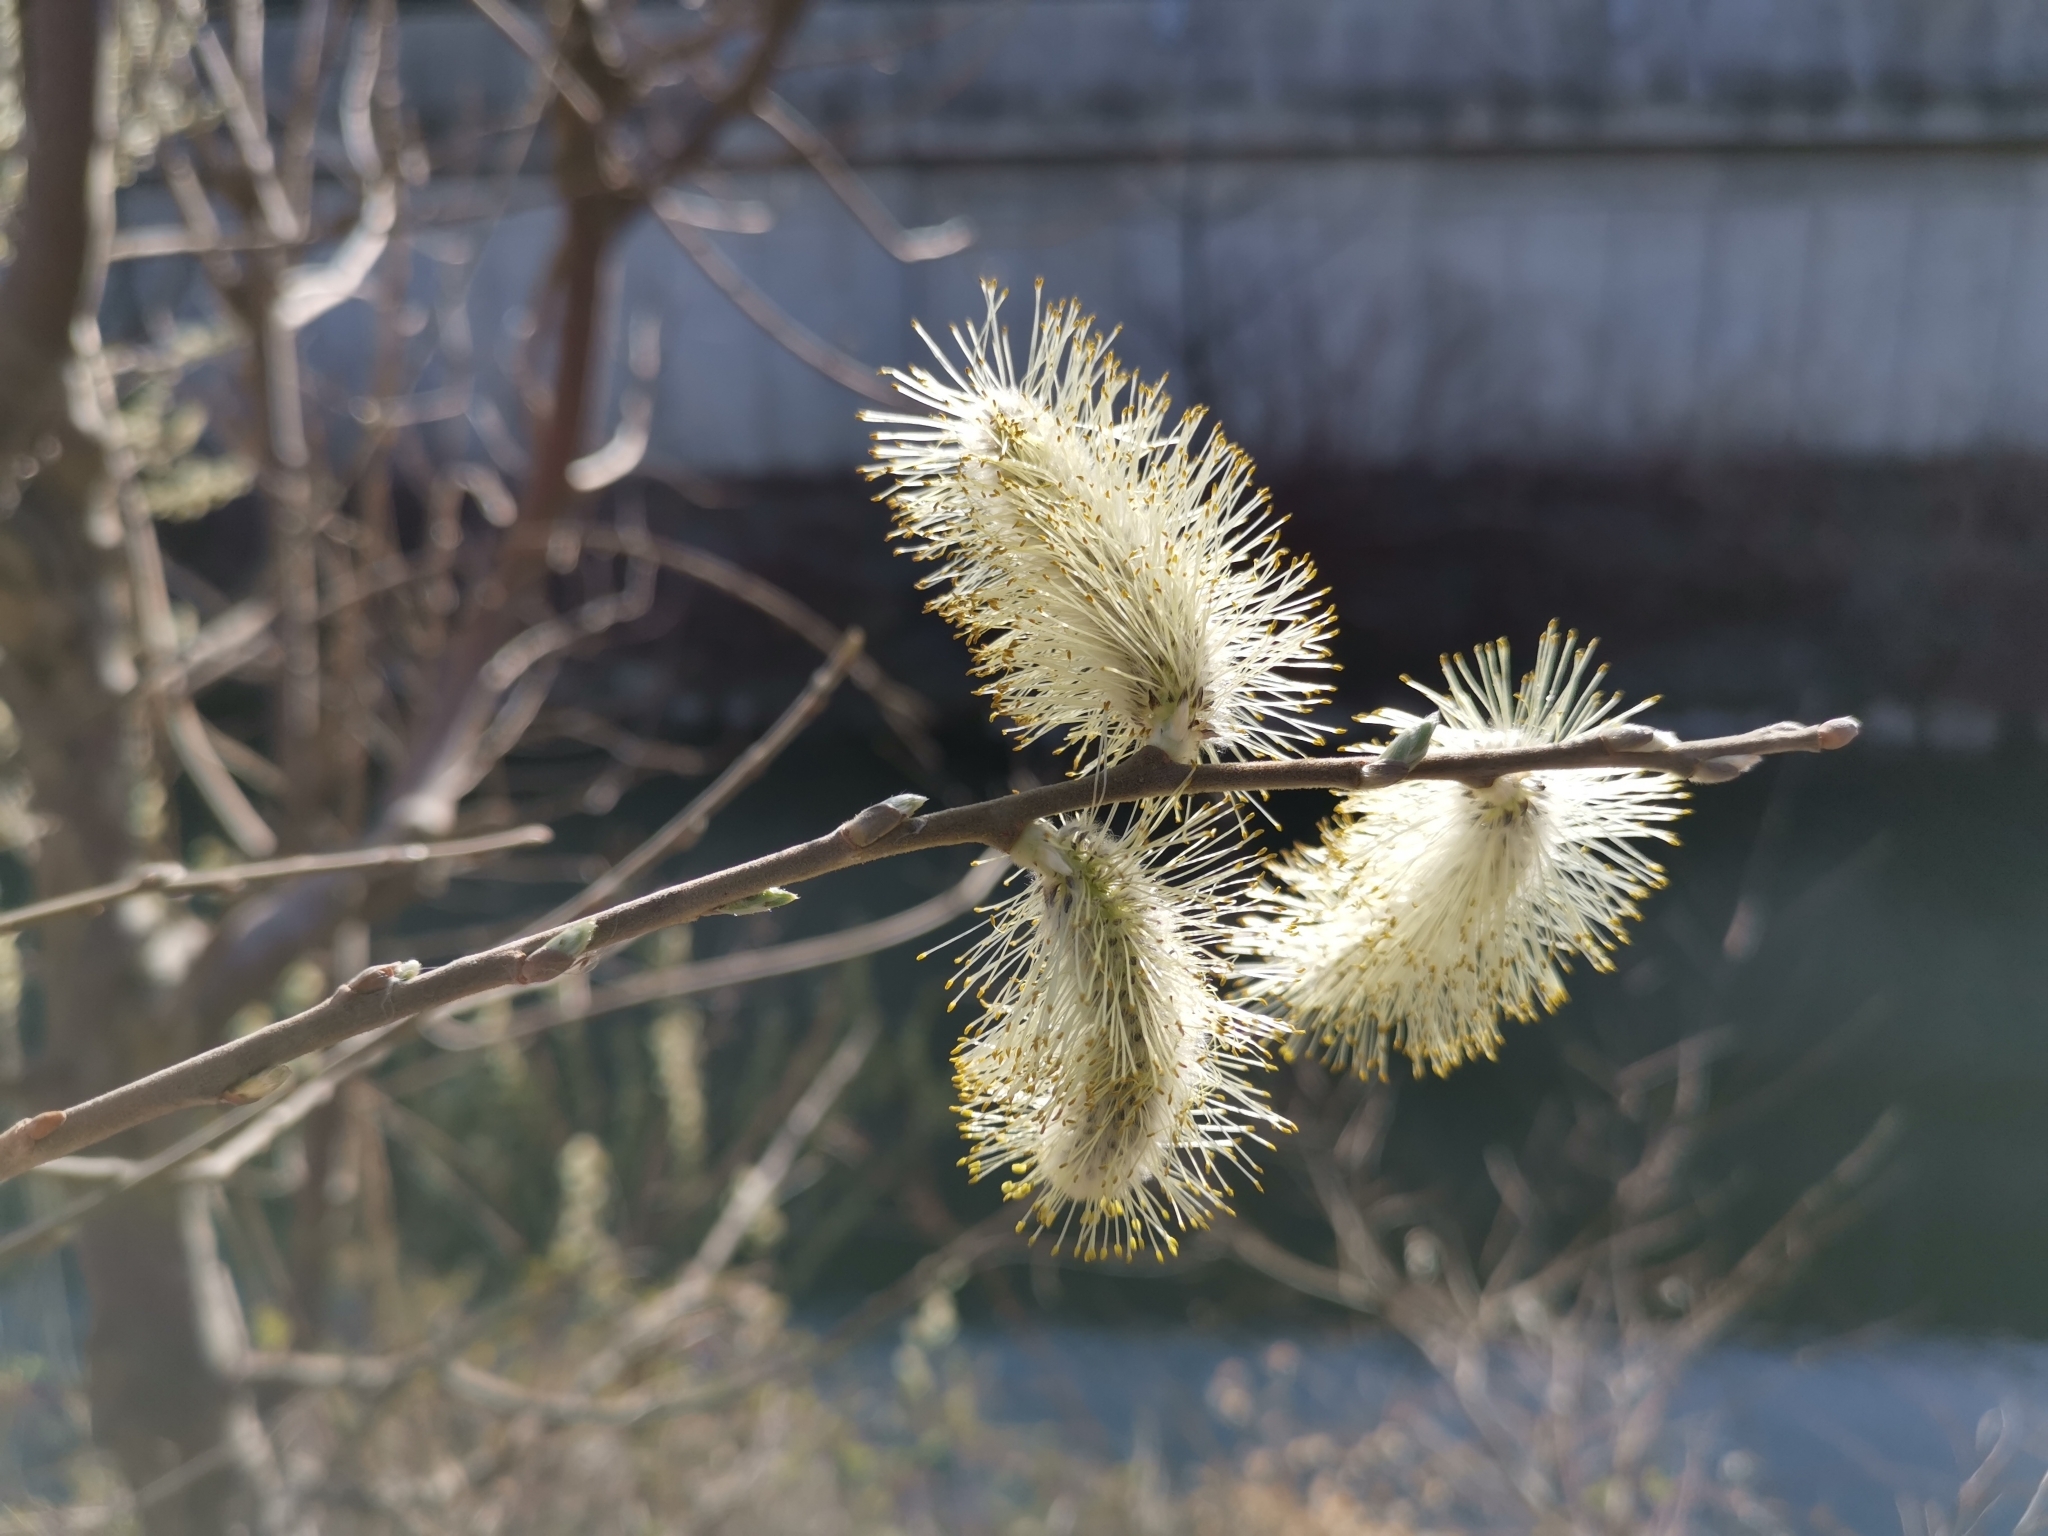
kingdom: Plantae
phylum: Tracheophyta
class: Magnoliopsida
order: Malpighiales
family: Salicaceae
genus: Salix
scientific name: Salix caprea
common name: Goat willow
